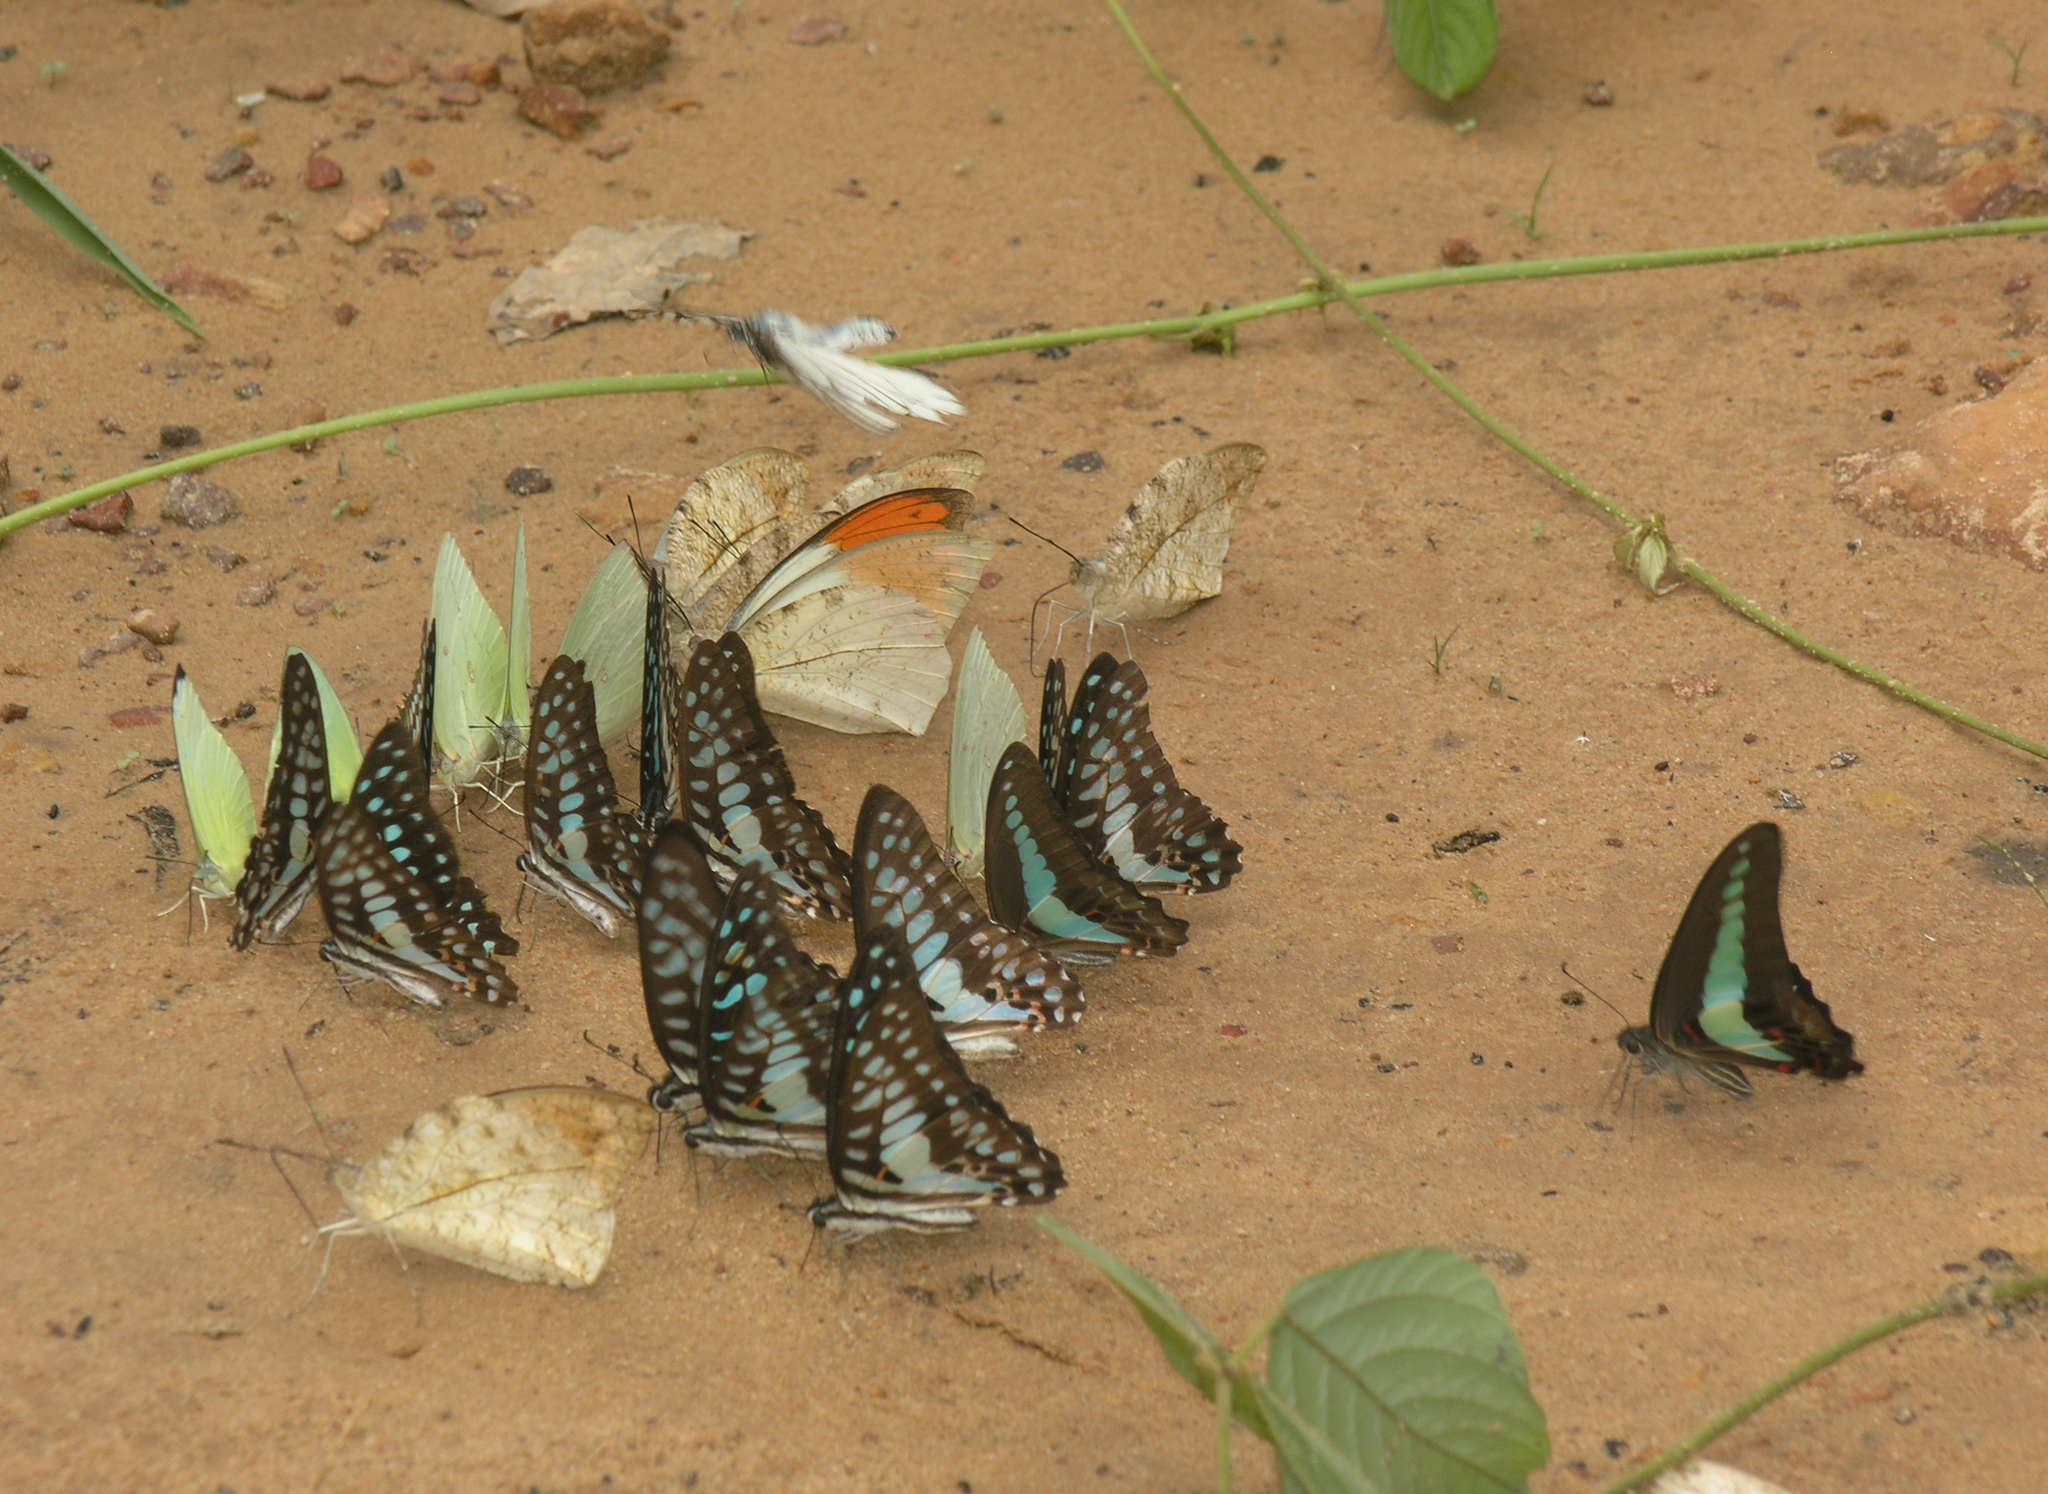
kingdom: Animalia
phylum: Arthropoda
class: Insecta
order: Lepidoptera
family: Papilionidae
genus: Graphium
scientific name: Graphium doson
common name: Common jay
